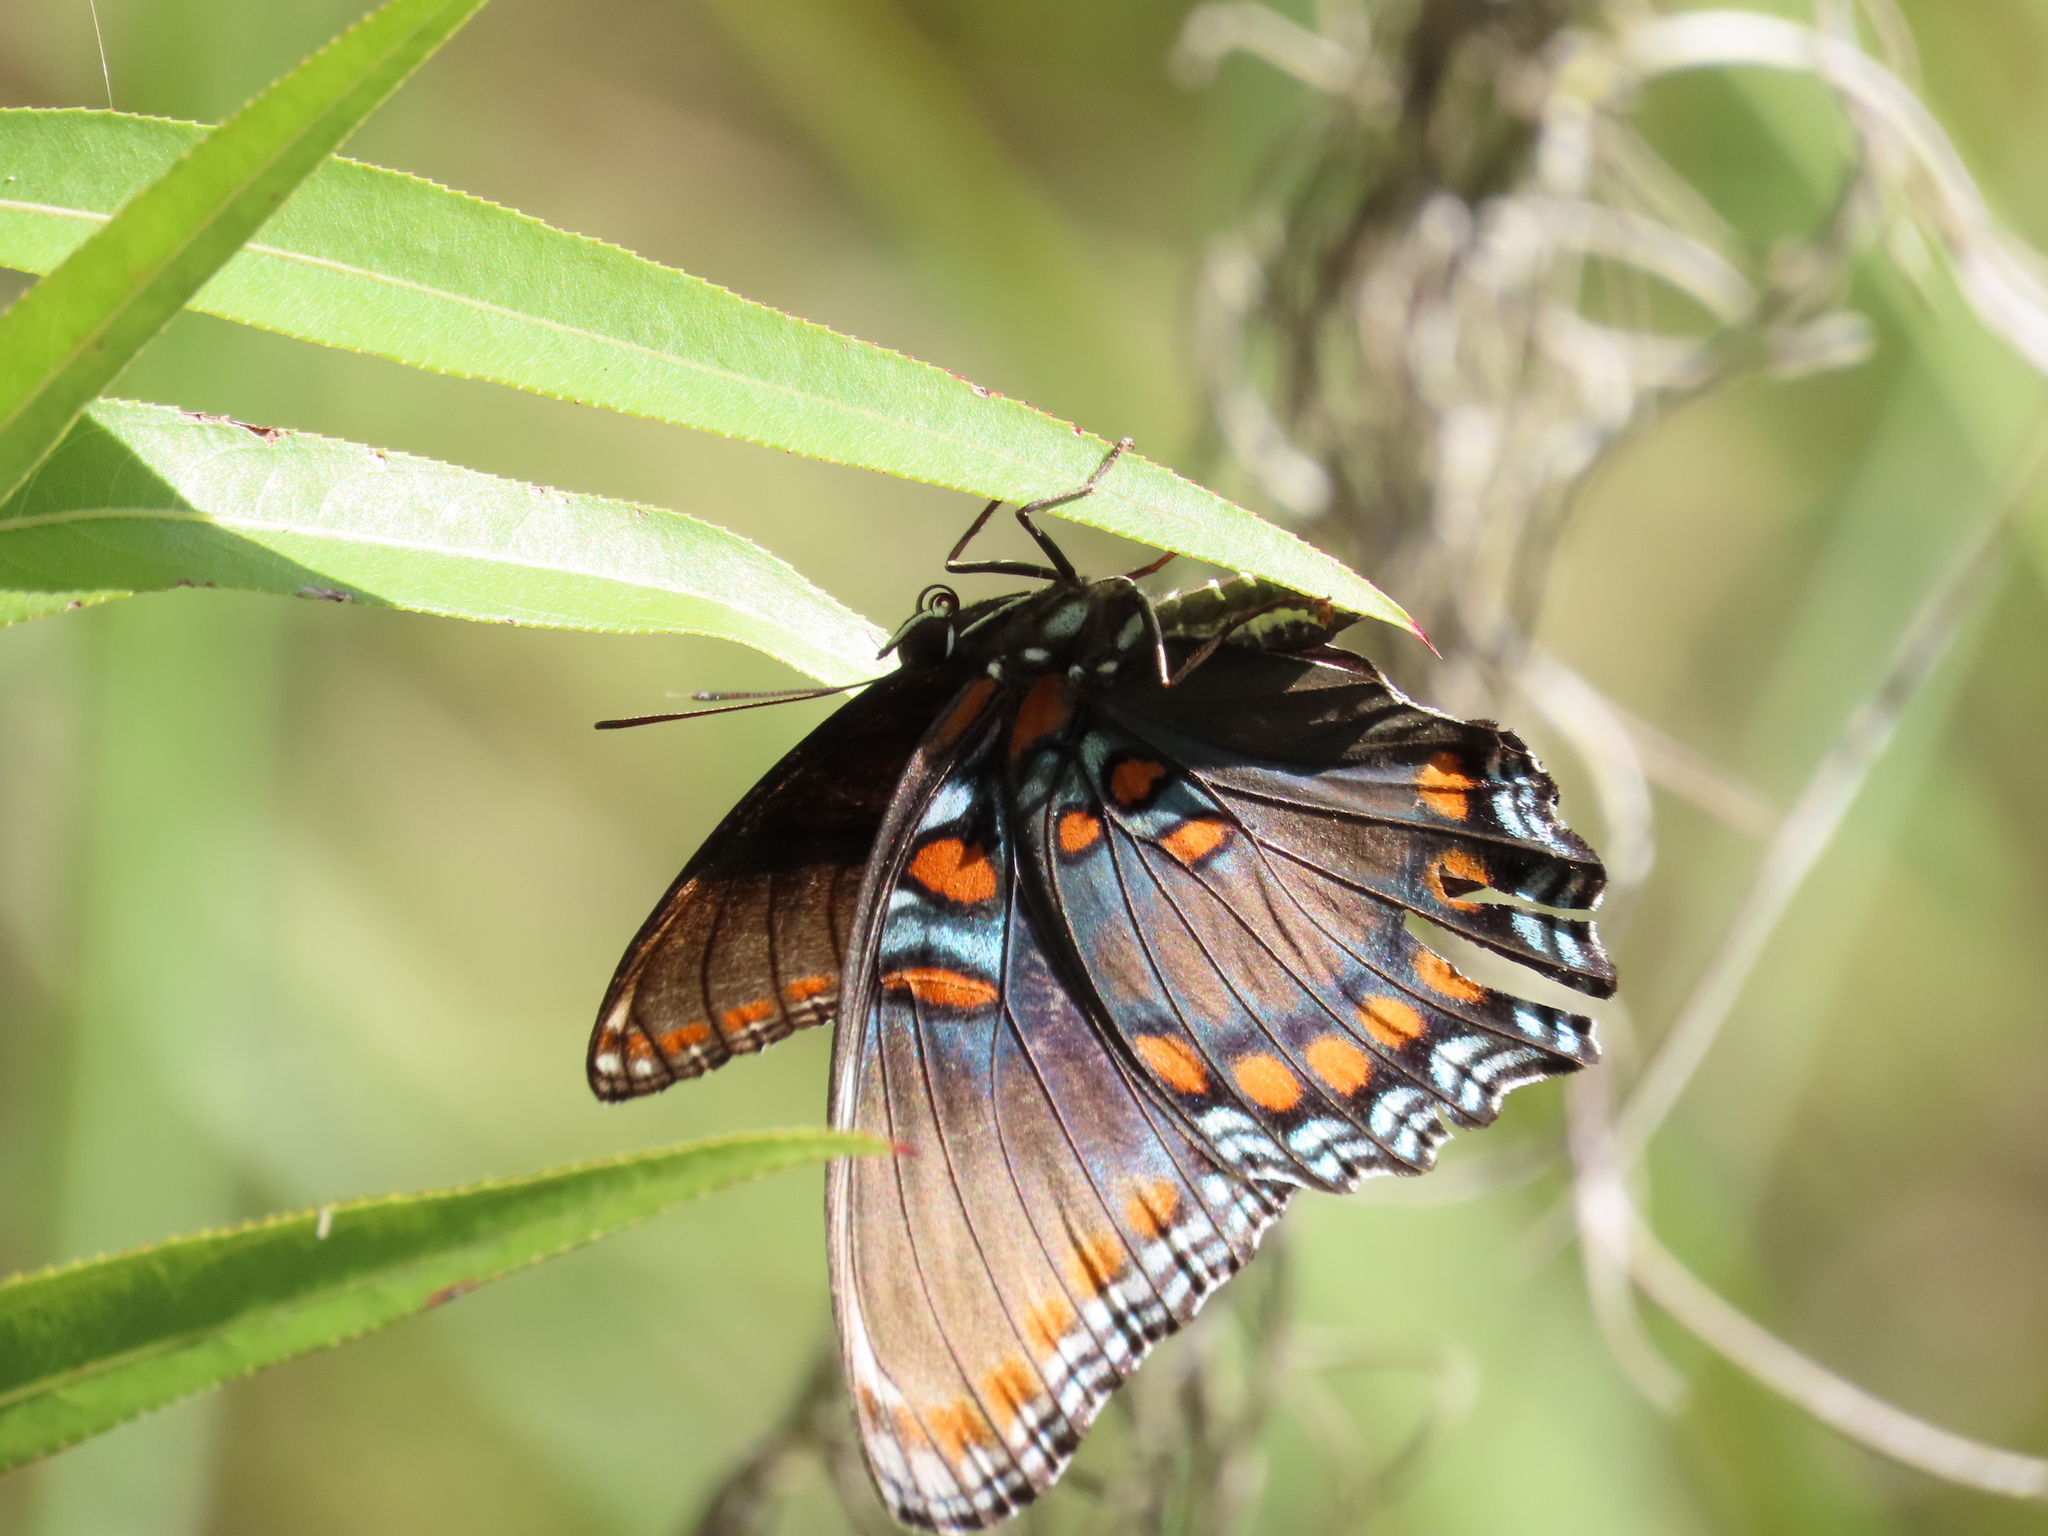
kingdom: Animalia
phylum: Arthropoda
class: Insecta
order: Lepidoptera
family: Nymphalidae
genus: Limenitis
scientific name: Limenitis astyanax
